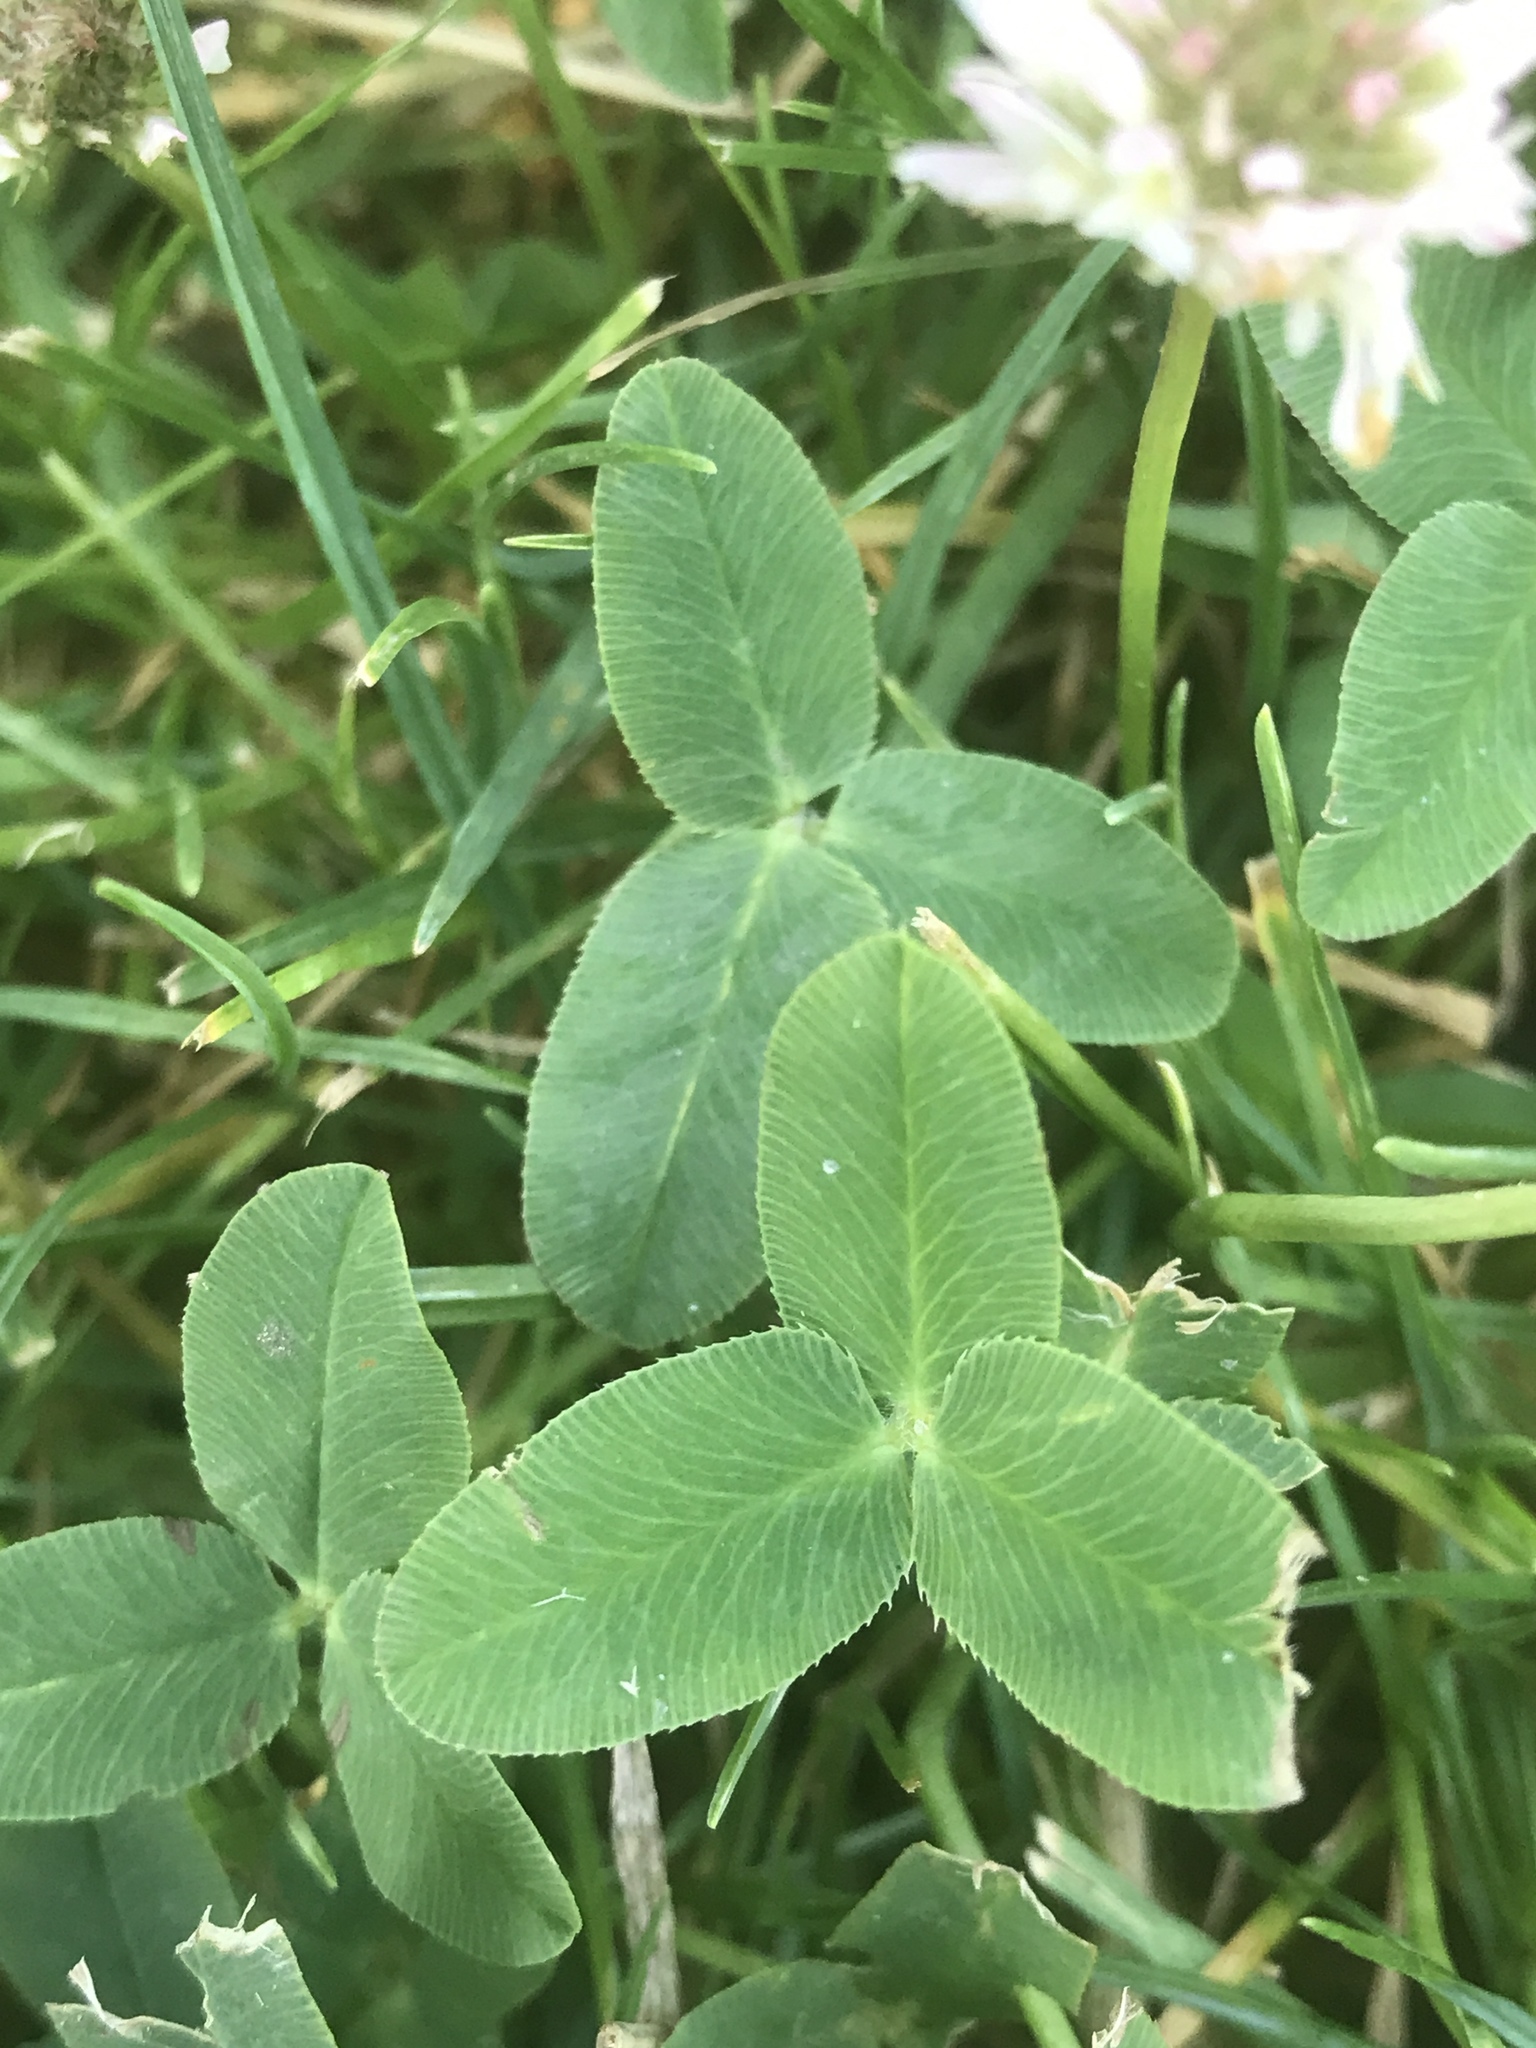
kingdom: Plantae
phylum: Tracheophyta
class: Magnoliopsida
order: Fabales
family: Fabaceae
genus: Trifolium
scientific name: Trifolium fragiferum
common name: Strawberry clover
